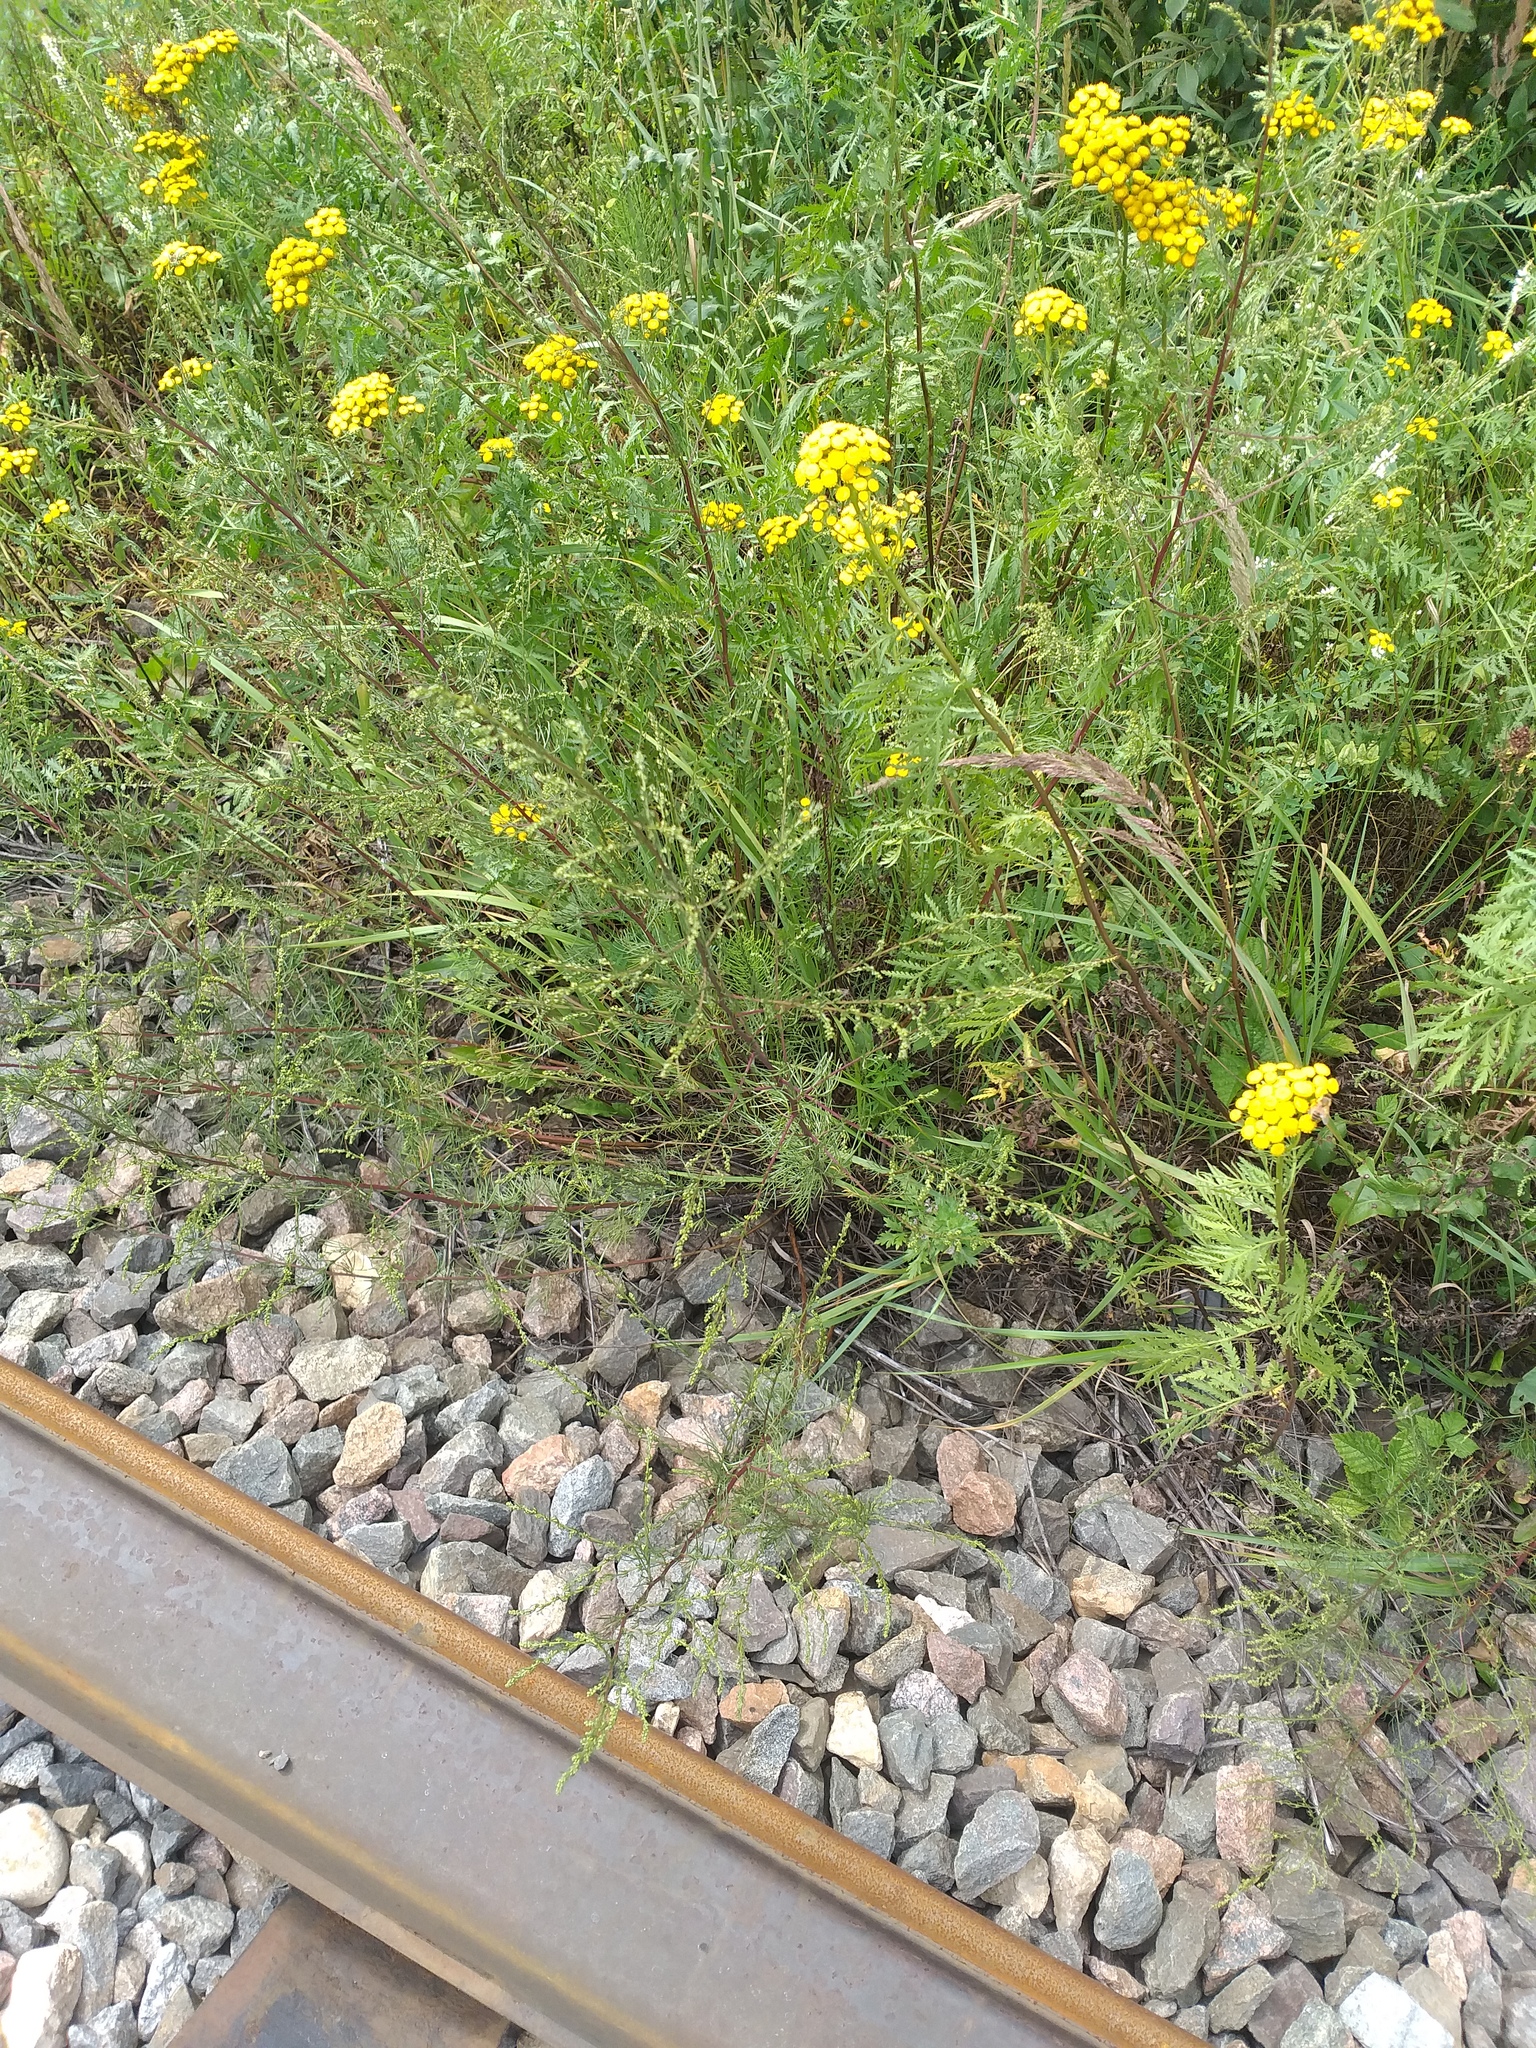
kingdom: Plantae
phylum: Tracheophyta
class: Magnoliopsida
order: Asterales
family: Asteraceae
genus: Artemisia
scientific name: Artemisia campestris
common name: Field wormwood
